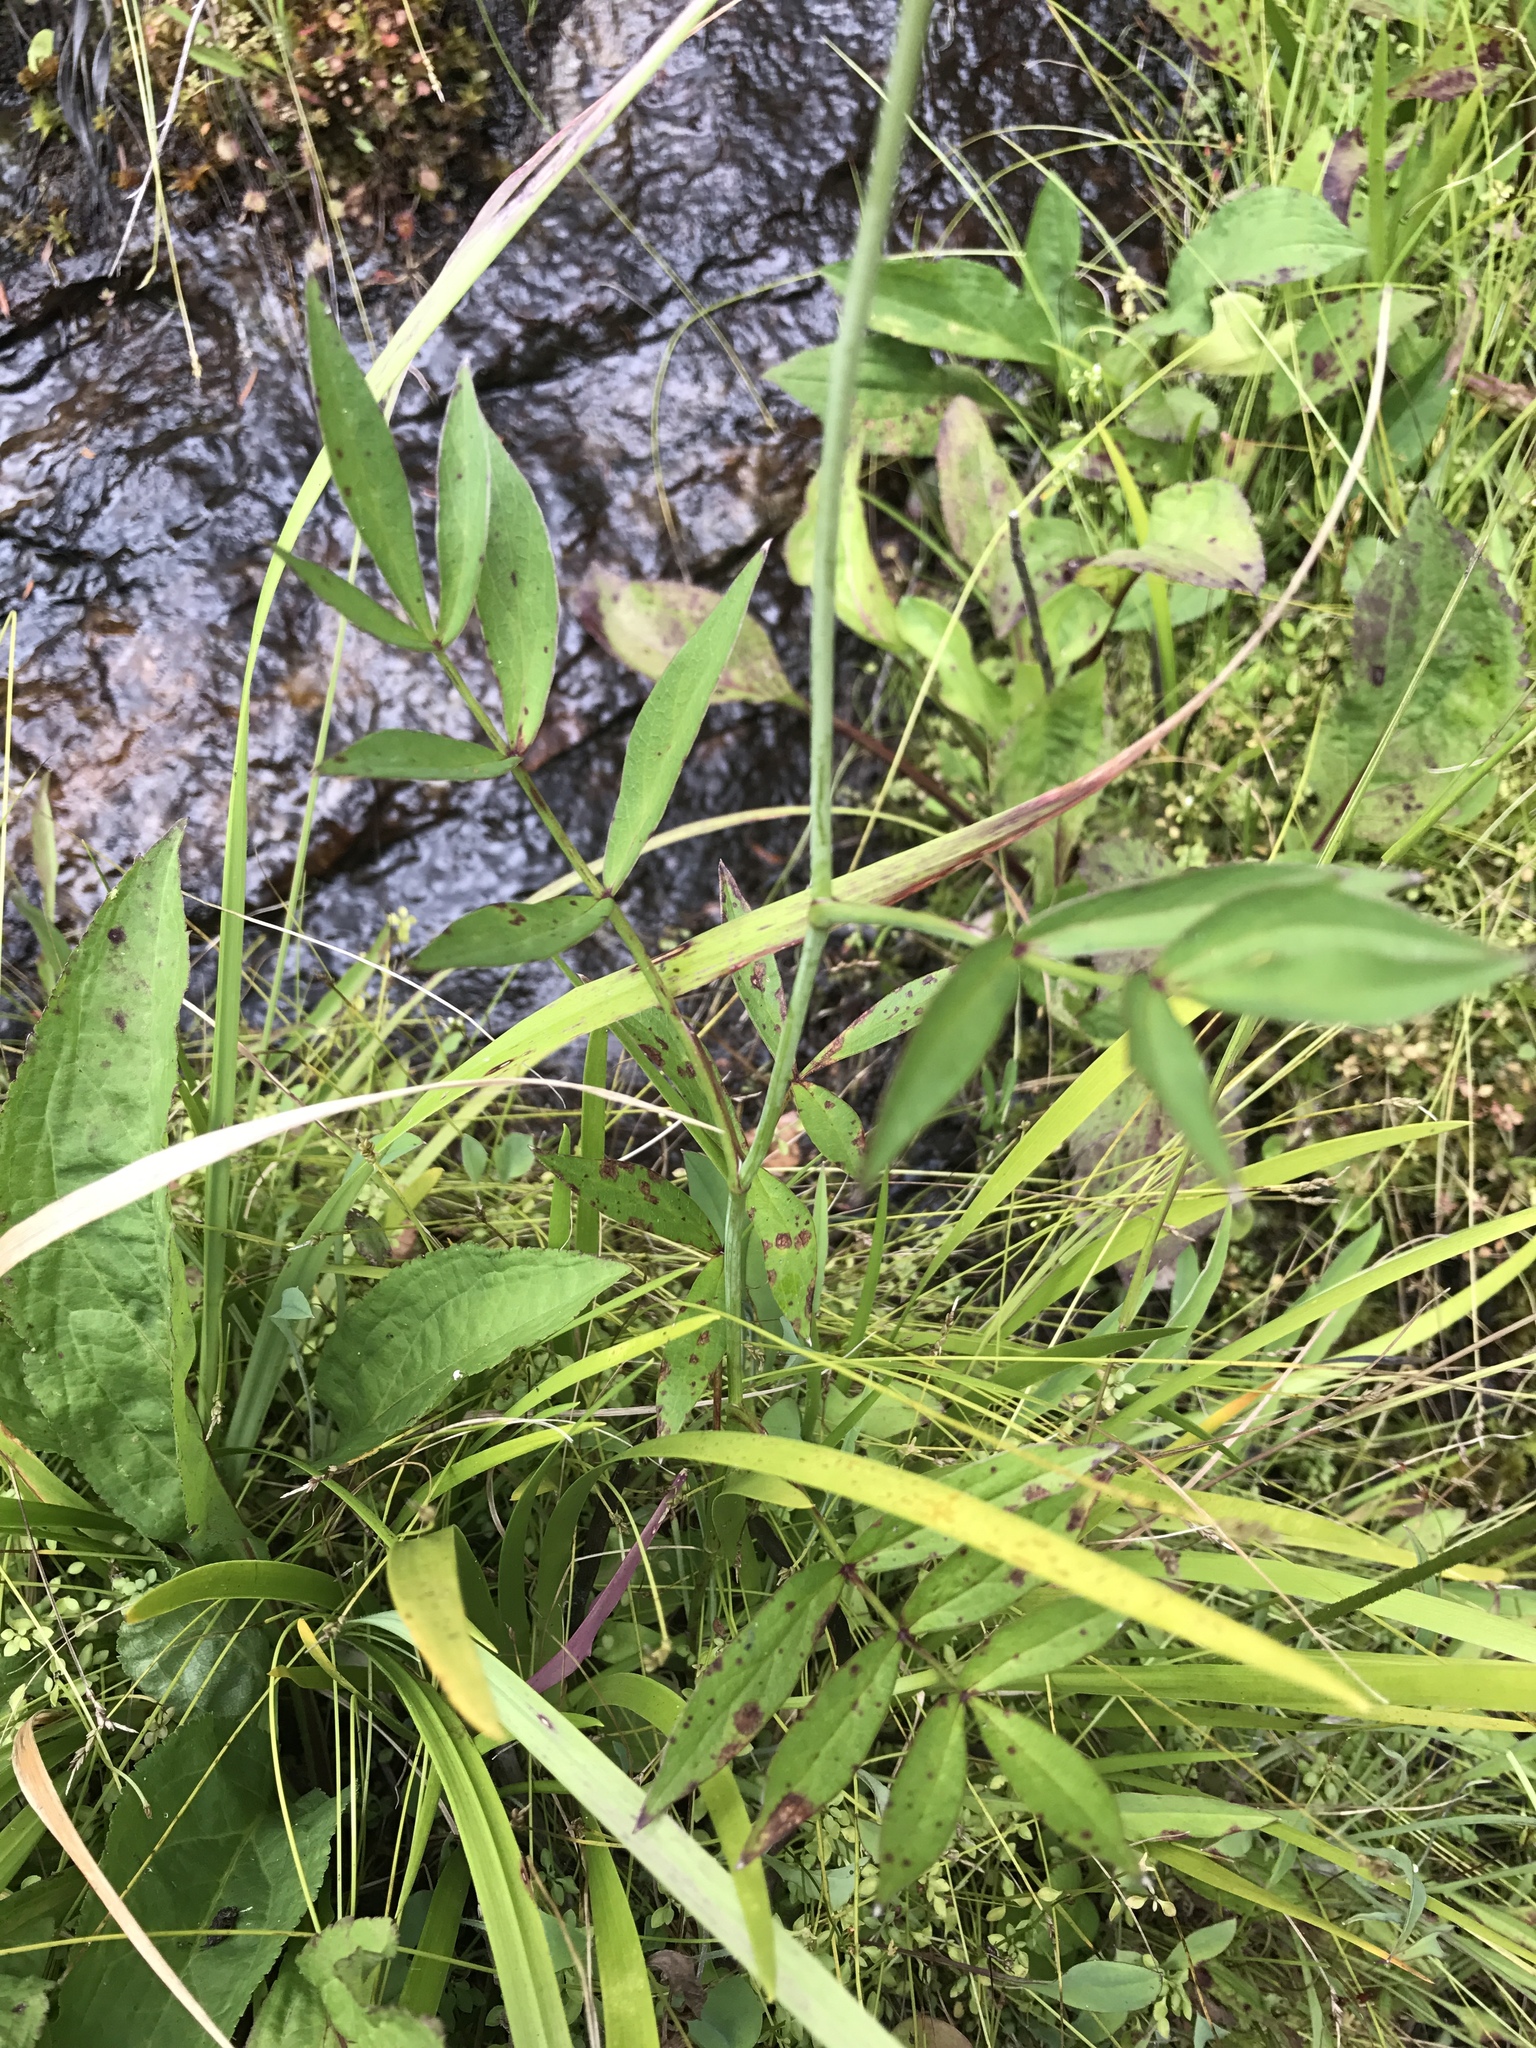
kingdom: Plantae
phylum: Tracheophyta
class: Magnoliopsida
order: Apiales
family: Apiaceae
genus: Oxypolis
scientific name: Oxypolis rigidior
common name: Cowbane
